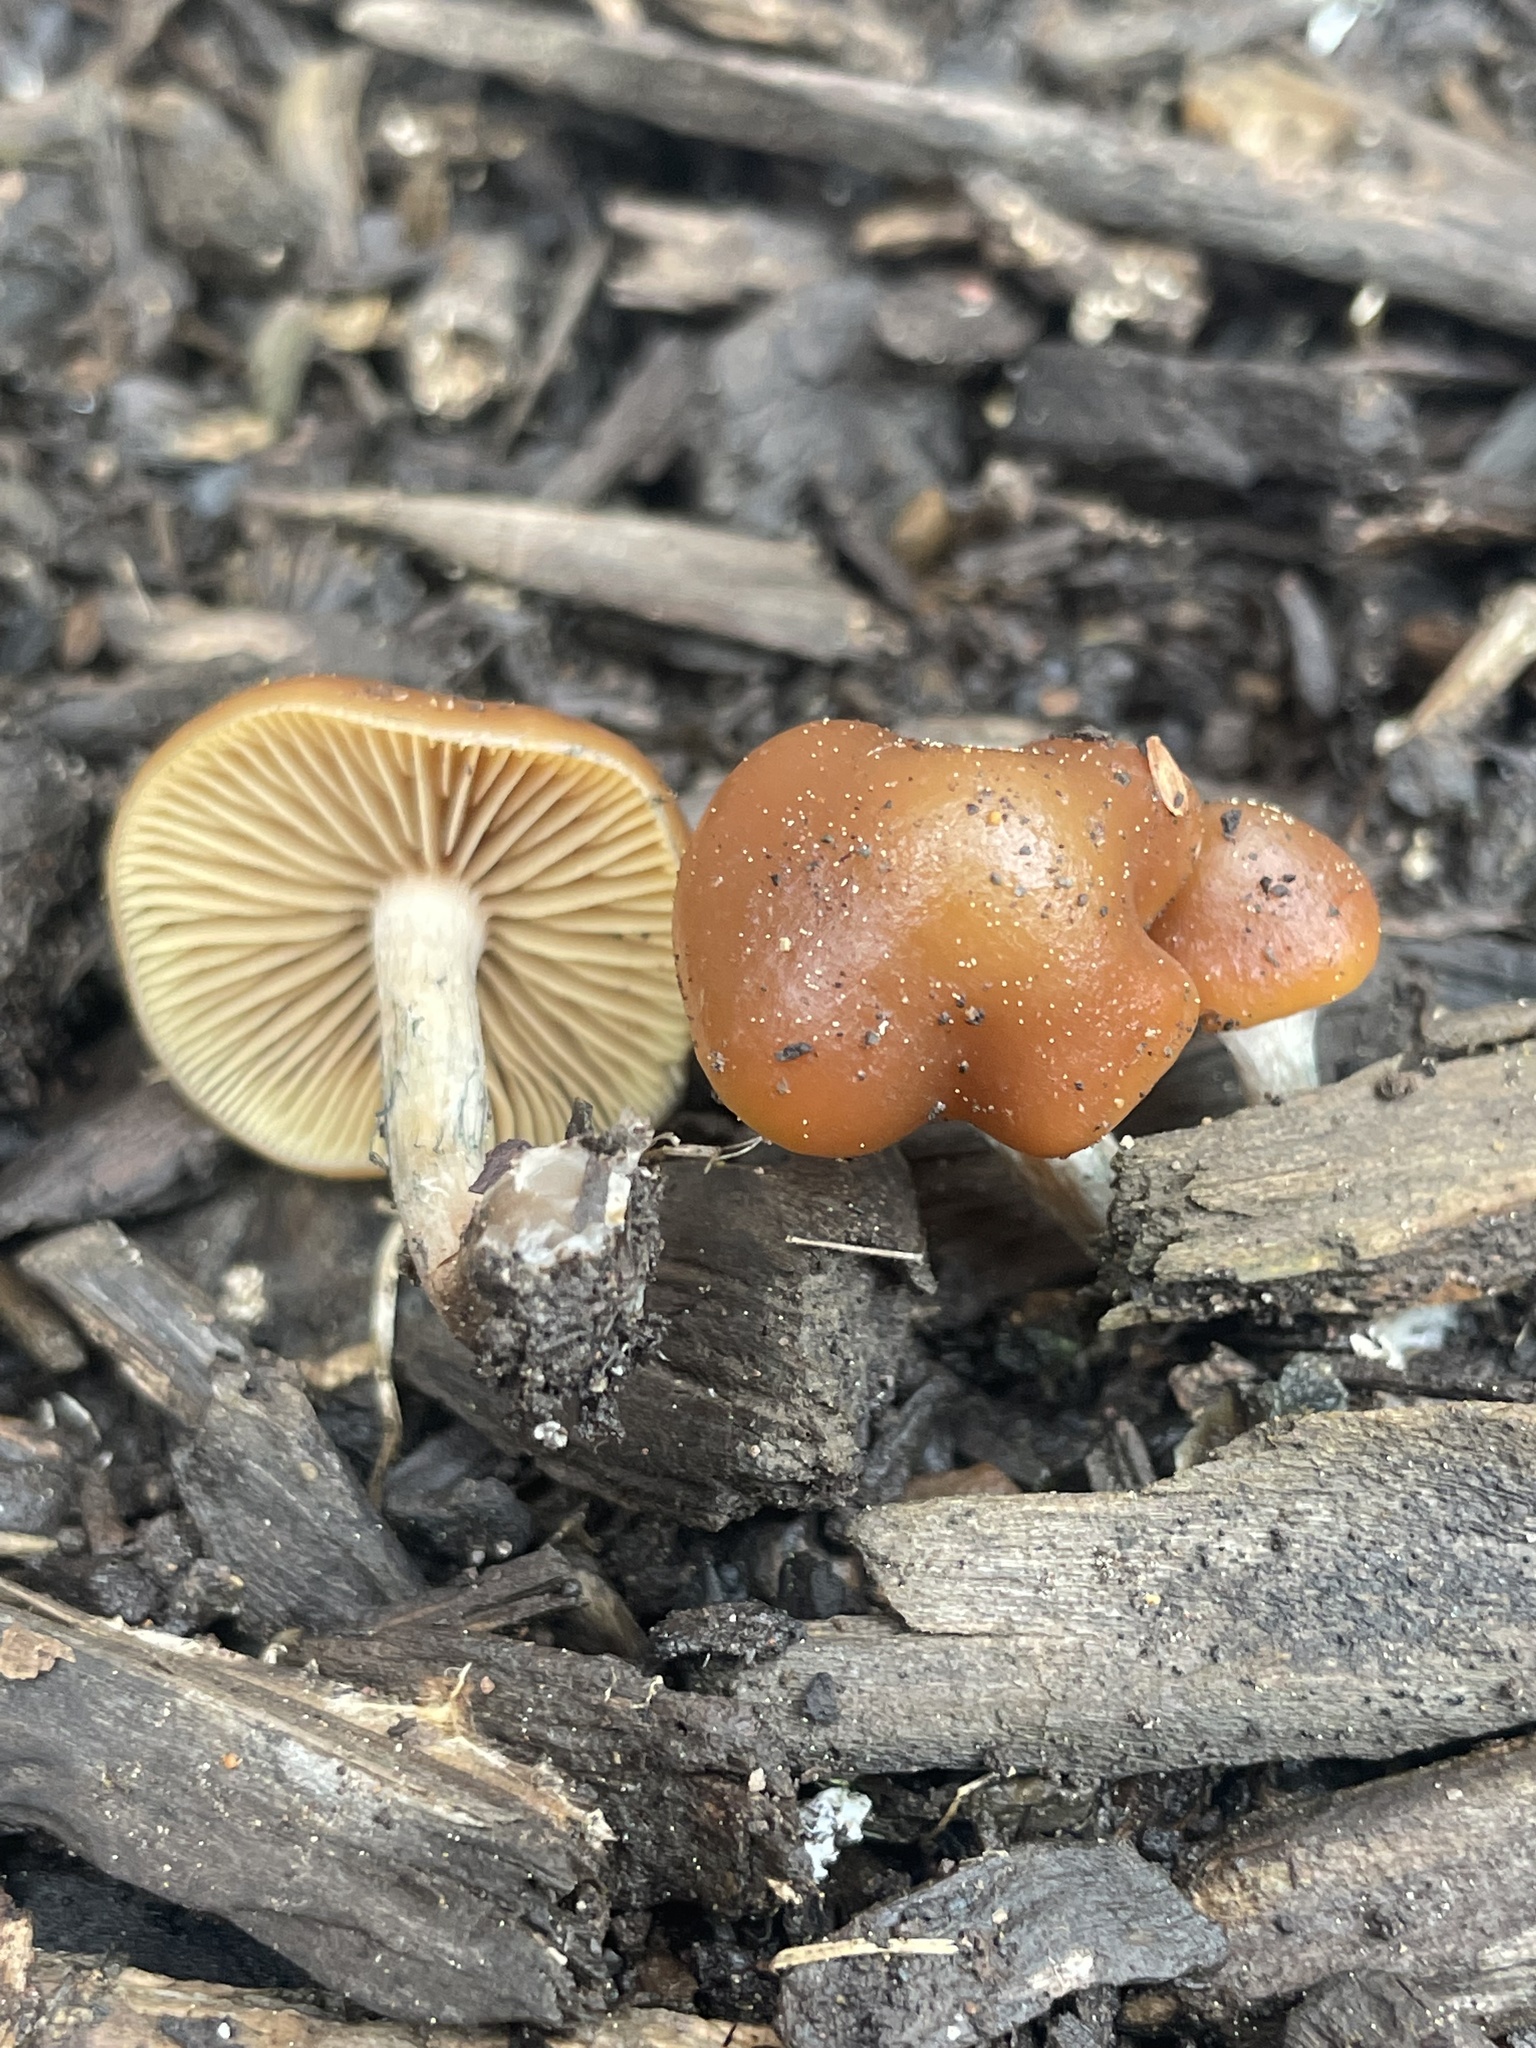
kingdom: Fungi
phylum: Basidiomycota
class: Agaricomycetes
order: Agaricales
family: Hymenogastraceae
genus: Psilocybe
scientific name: Psilocybe cyanescens
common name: Blueleg brownie
